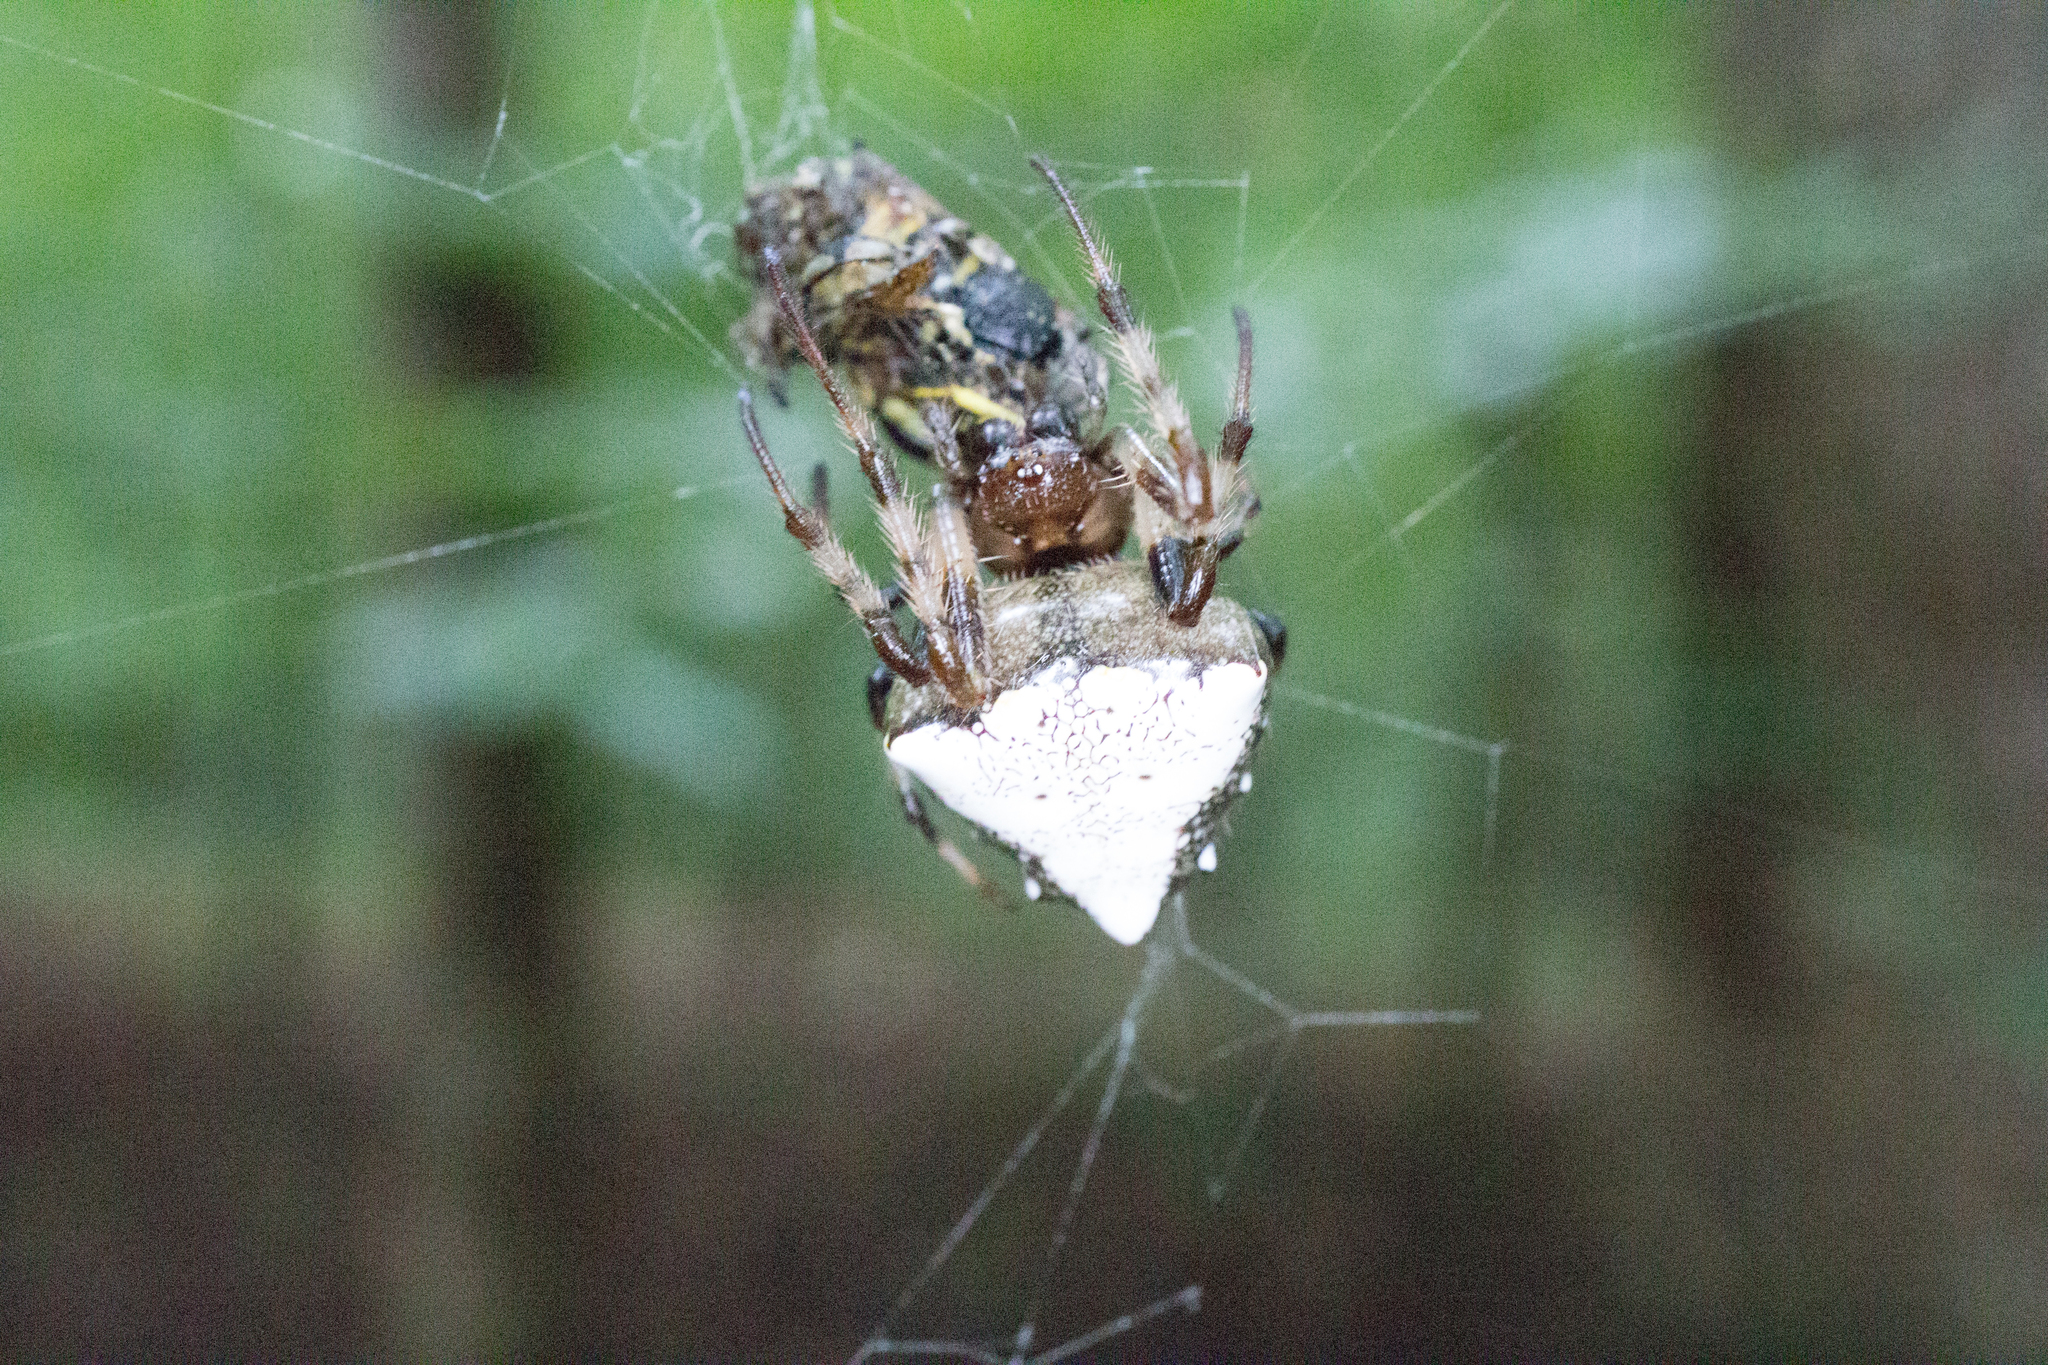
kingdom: Animalia
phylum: Arthropoda
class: Arachnida
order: Araneae
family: Araneidae
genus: Verrucosa
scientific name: Verrucosa arenata
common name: Orb weavers
